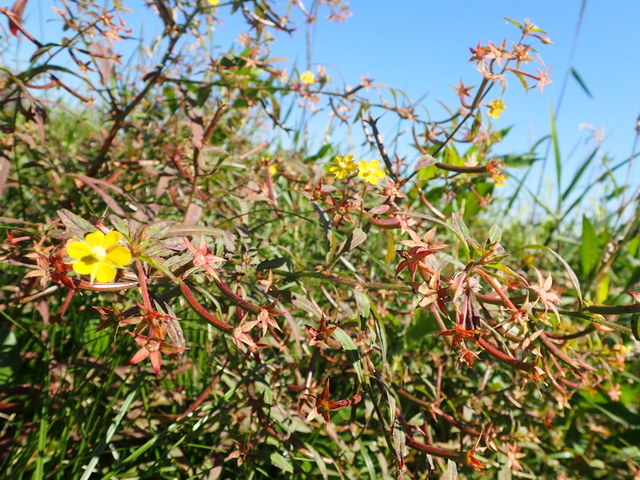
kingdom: Plantae
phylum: Tracheophyta
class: Magnoliopsida
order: Myrtales
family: Onagraceae
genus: Ludwigia
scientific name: Ludwigia leptocarpa
